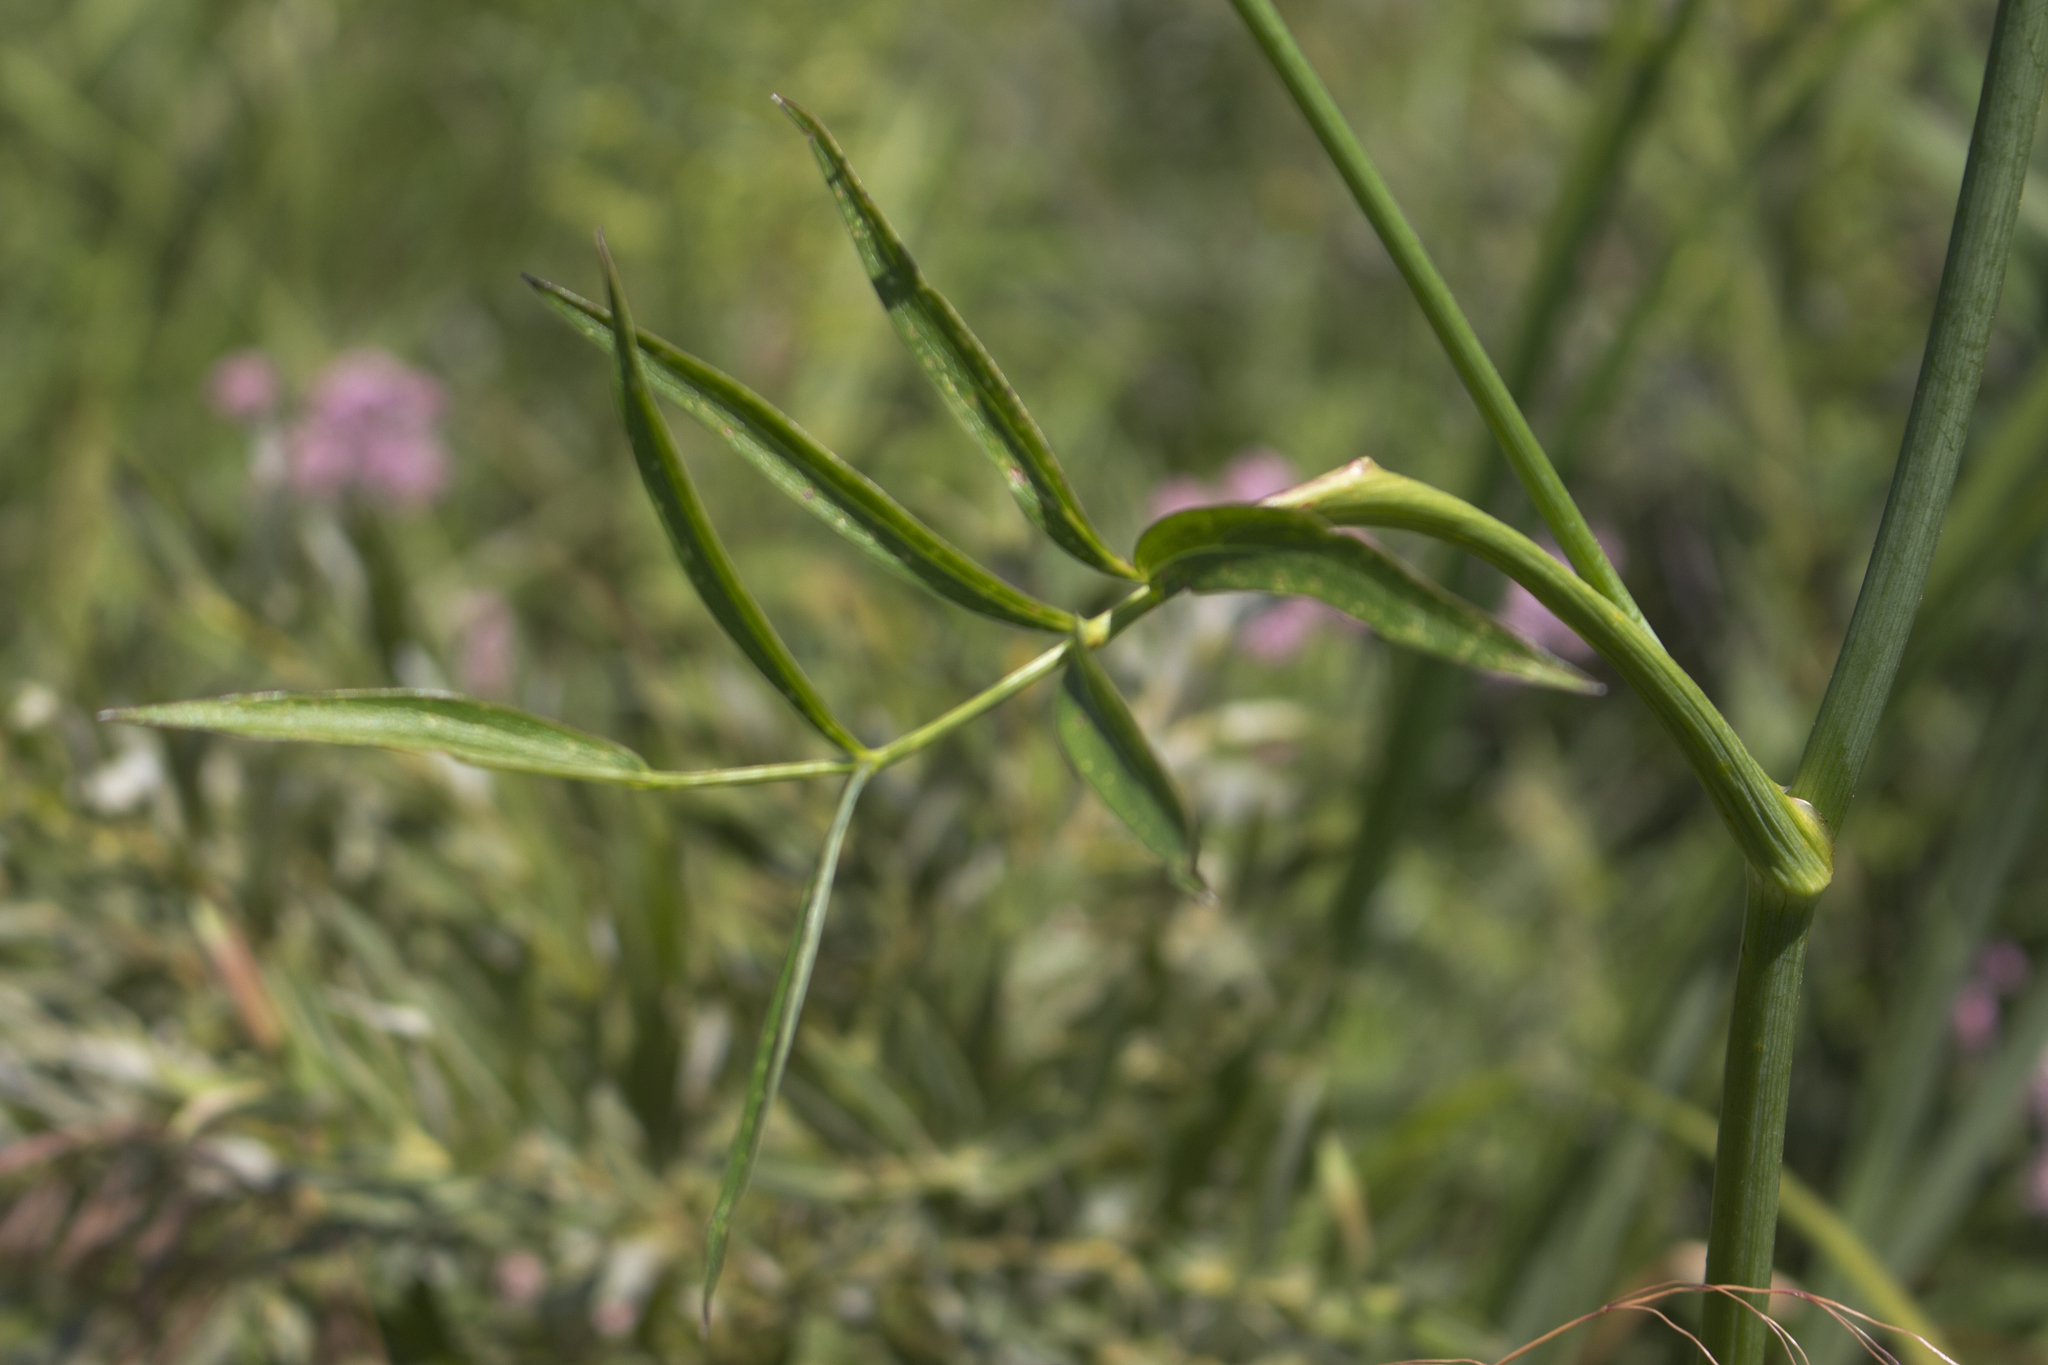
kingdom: Plantae
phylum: Tracheophyta
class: Magnoliopsida
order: Apiales
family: Apiaceae
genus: Oxypolis
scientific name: Oxypolis rigidior
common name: Cowbane
